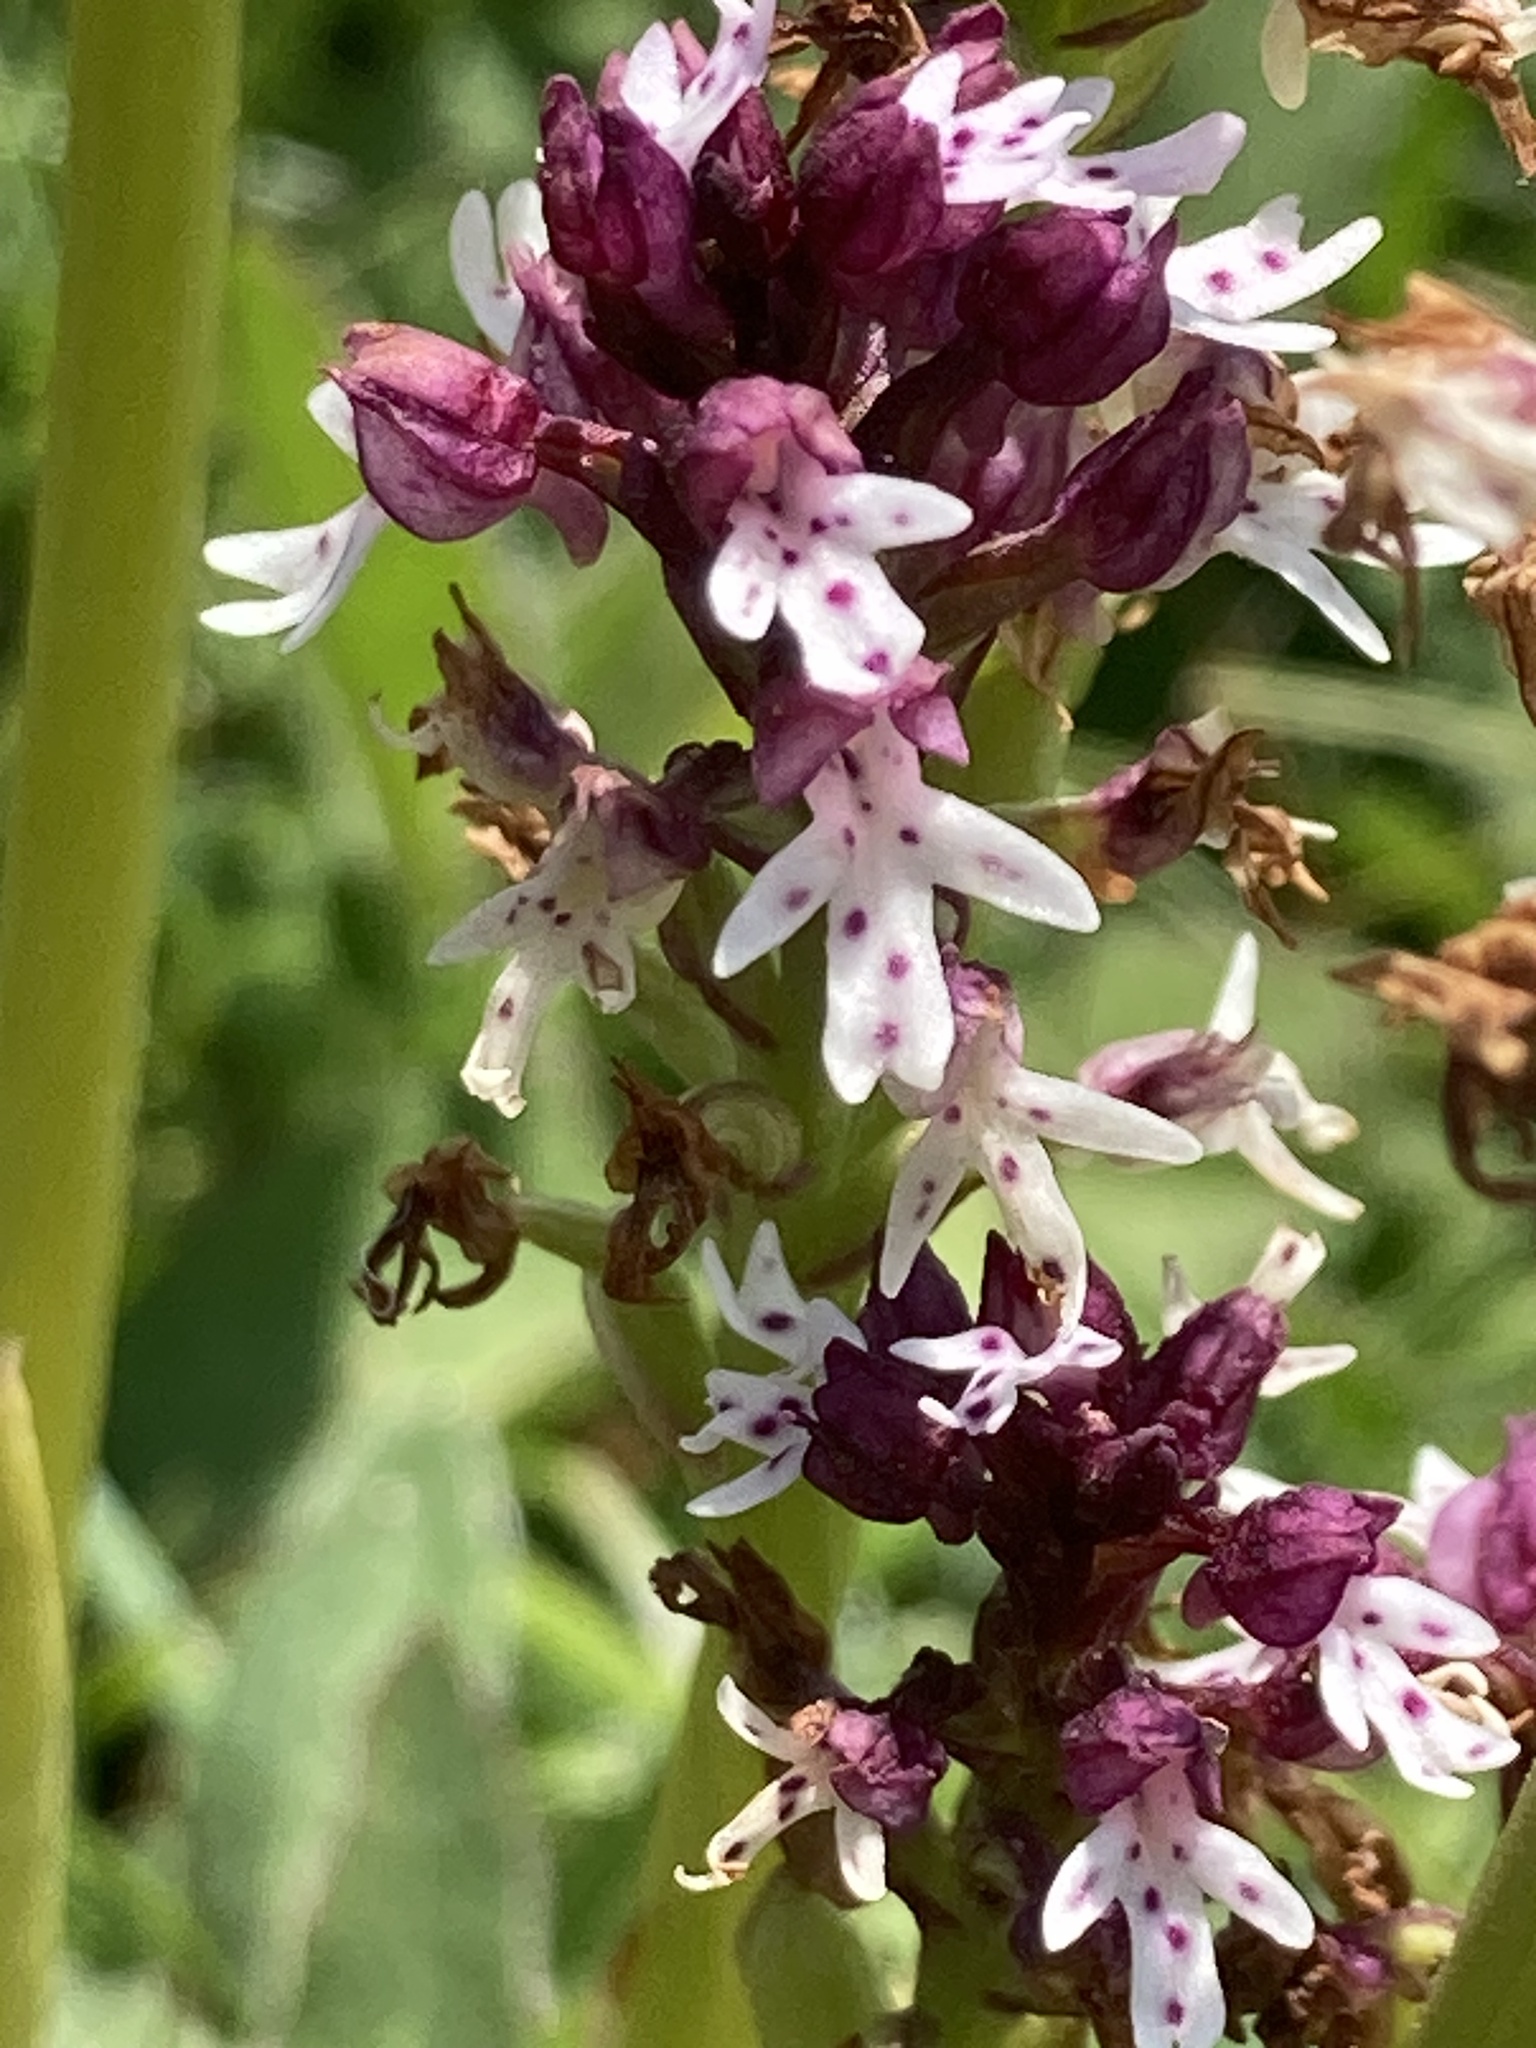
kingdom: Plantae
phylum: Tracheophyta
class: Liliopsida
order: Asparagales
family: Orchidaceae
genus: Neotinea
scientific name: Neotinea ustulata
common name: Burnt orchid
